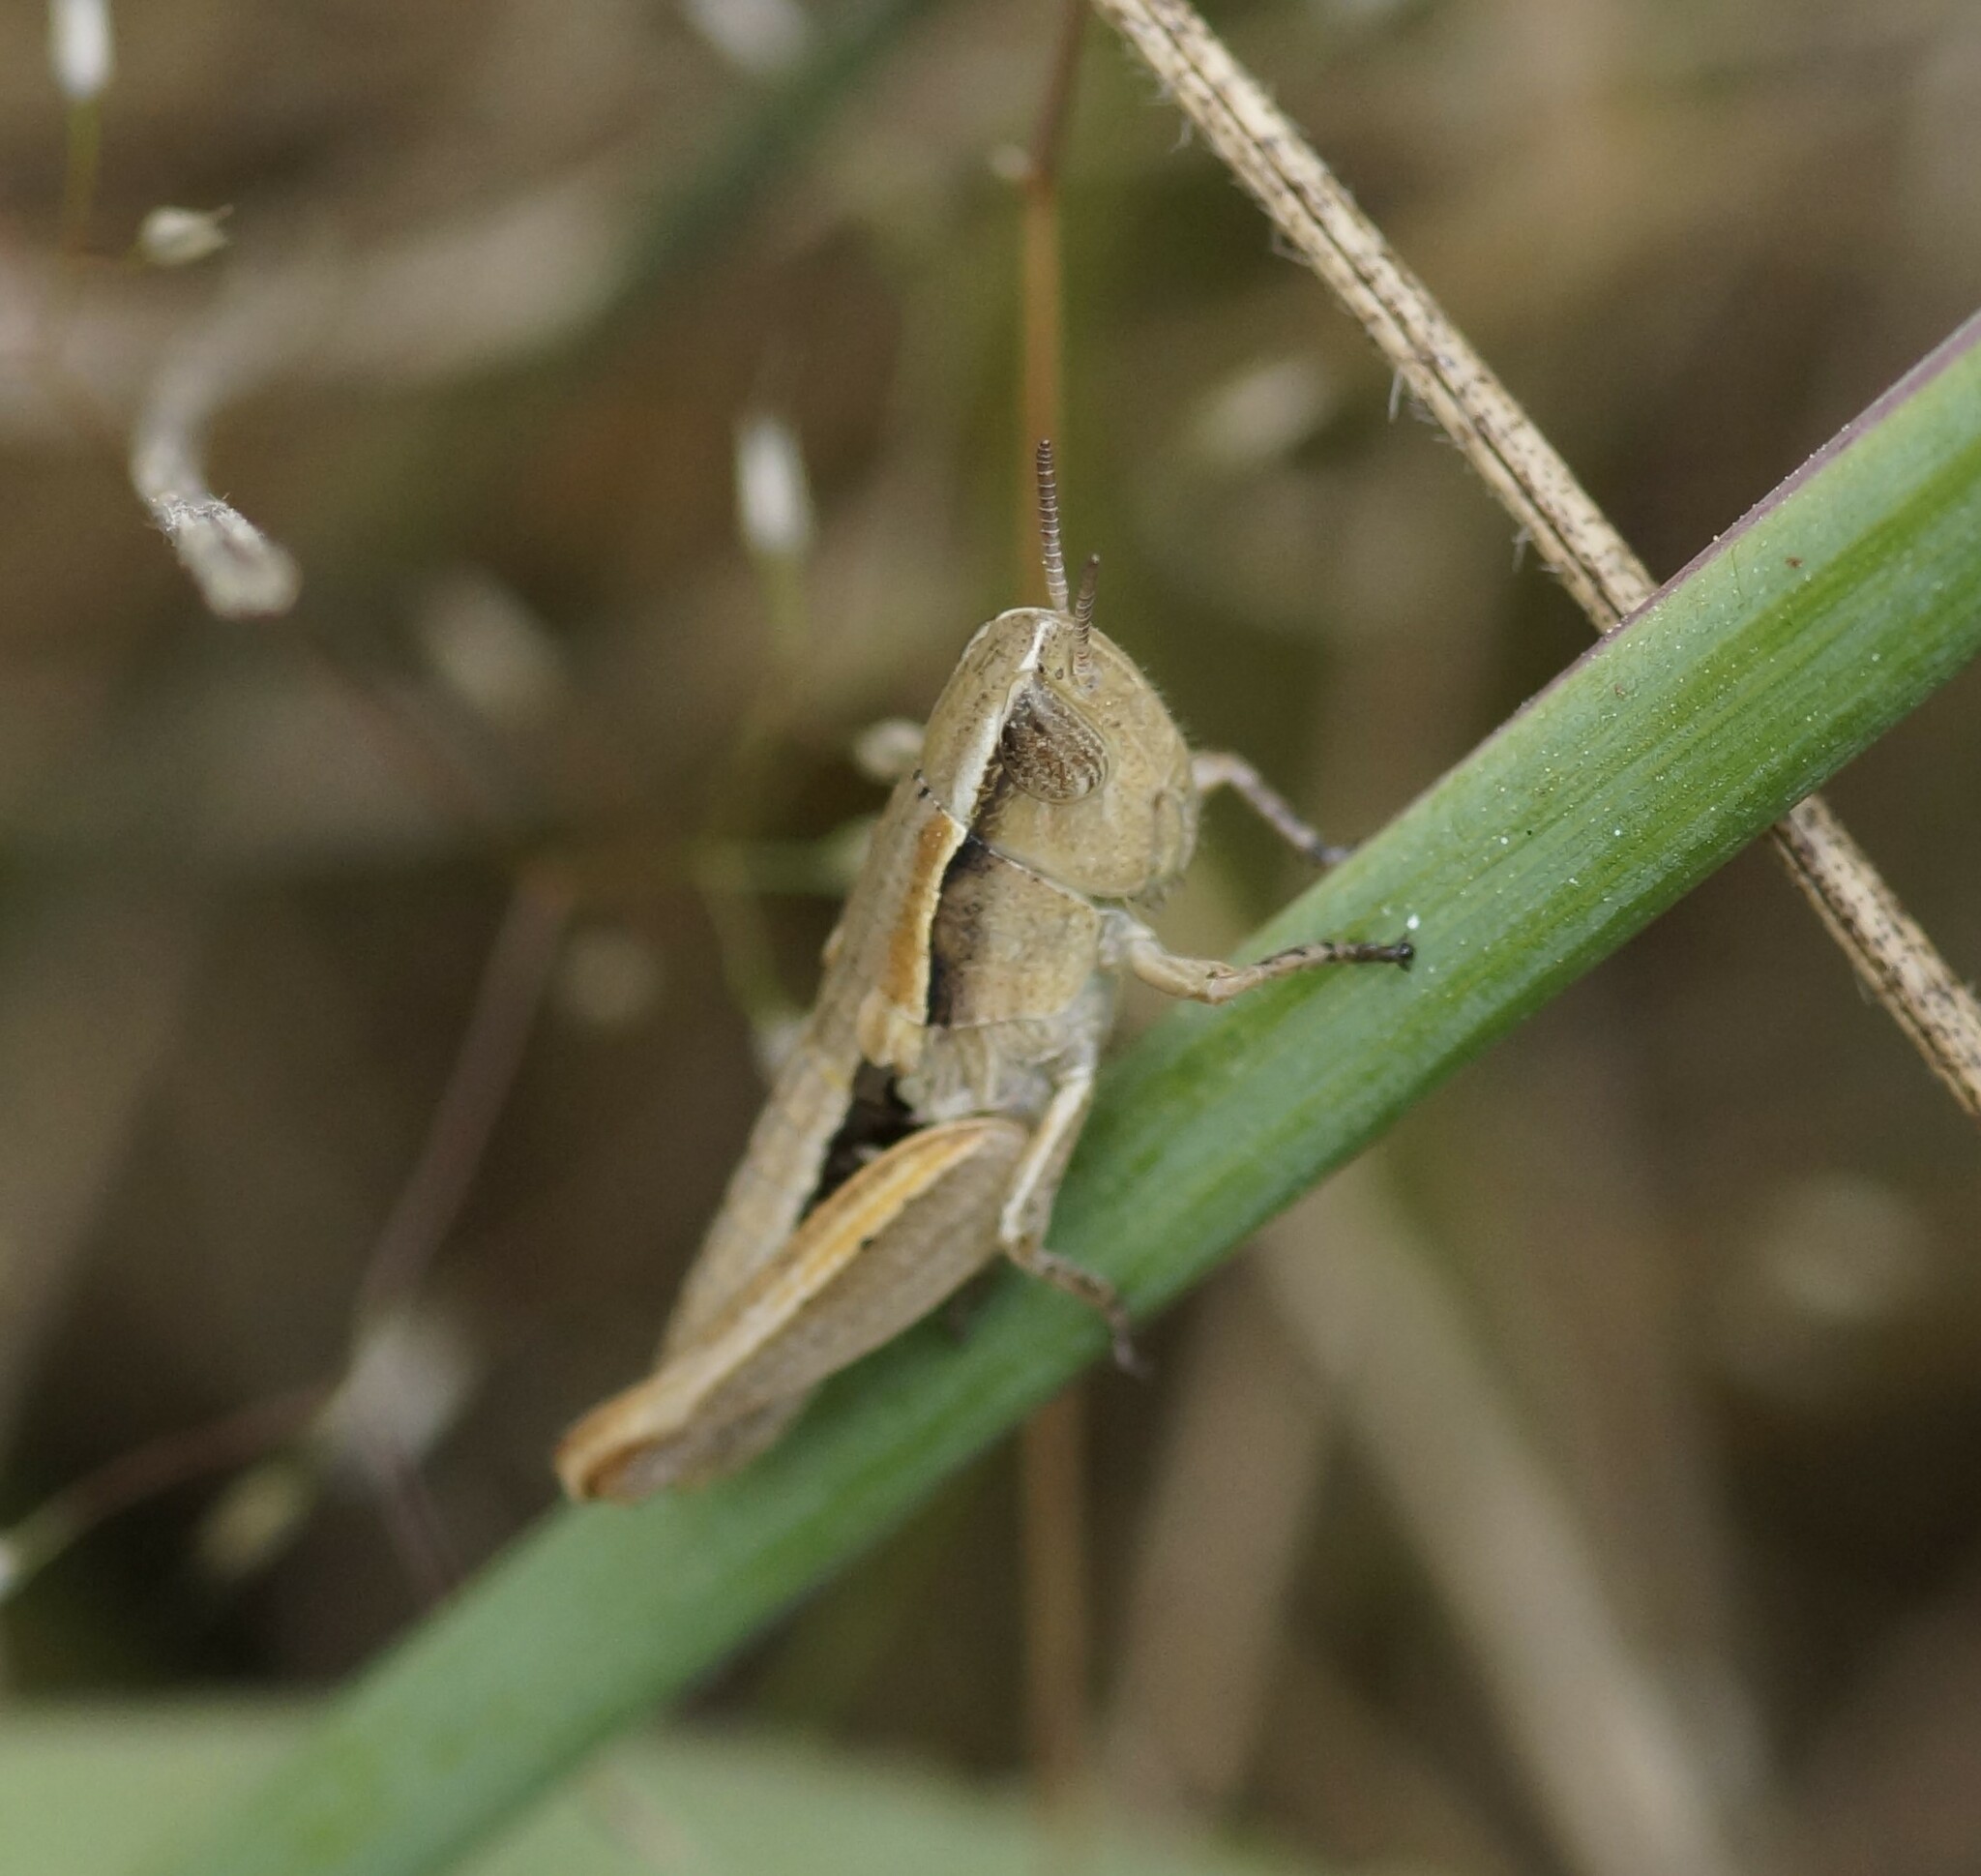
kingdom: Animalia
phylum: Arthropoda
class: Insecta
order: Orthoptera
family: Acrididae
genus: Praxibulus
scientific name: Praxibulus duplex
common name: Common praxibulus
